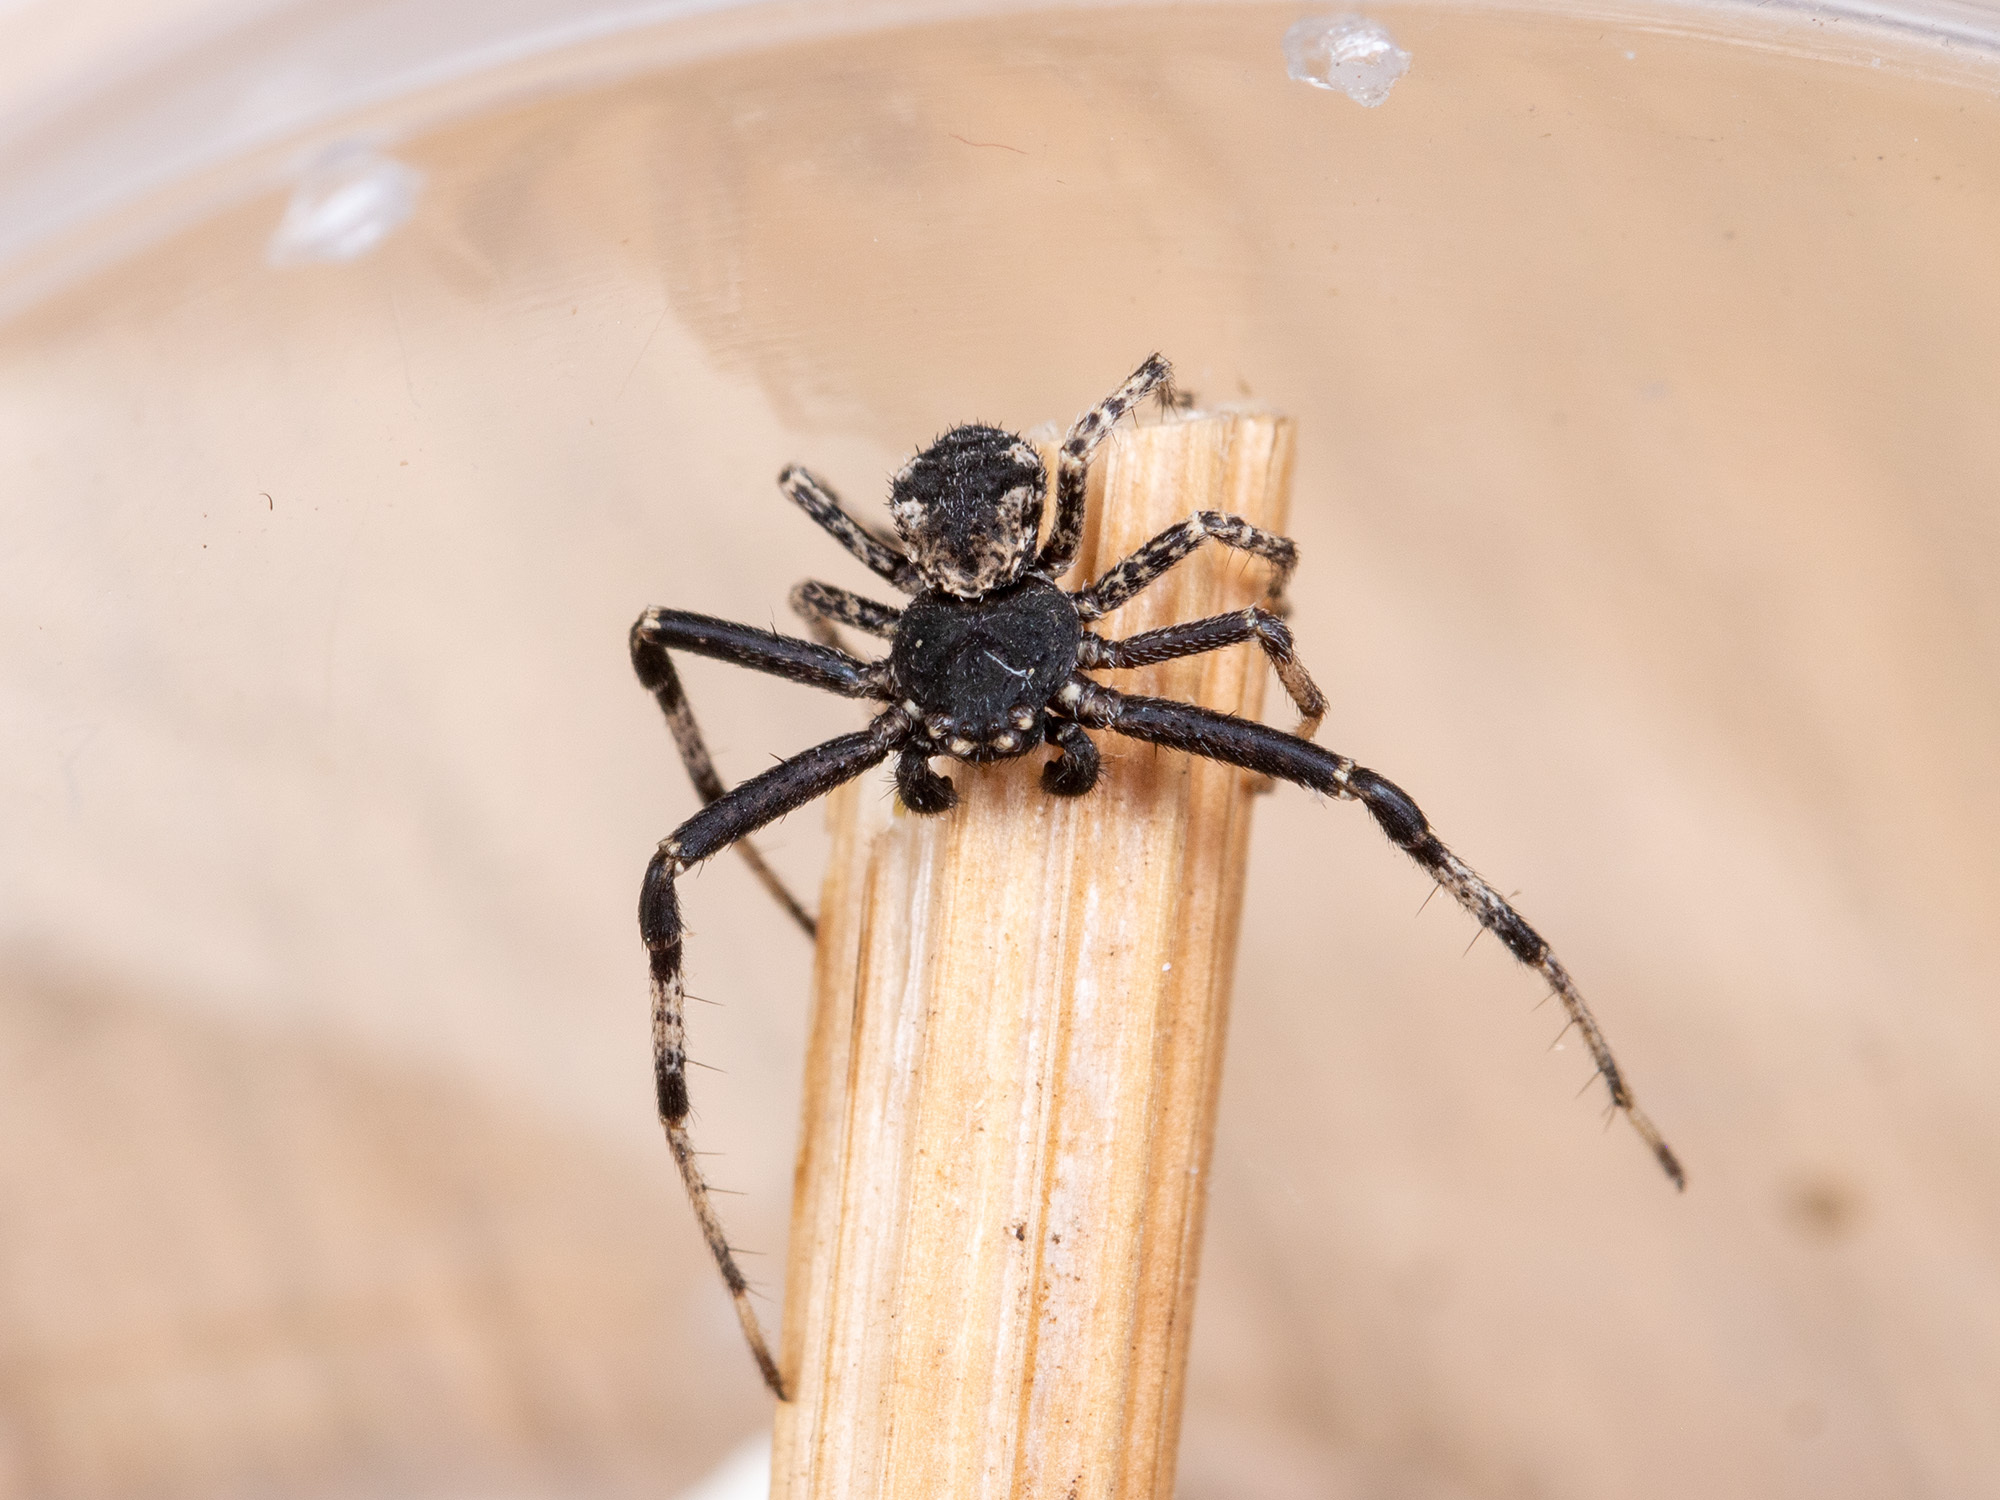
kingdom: Animalia
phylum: Arthropoda
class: Arachnida
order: Araneae
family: Thomisidae
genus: Ozyptila
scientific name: Ozyptila lugubris
